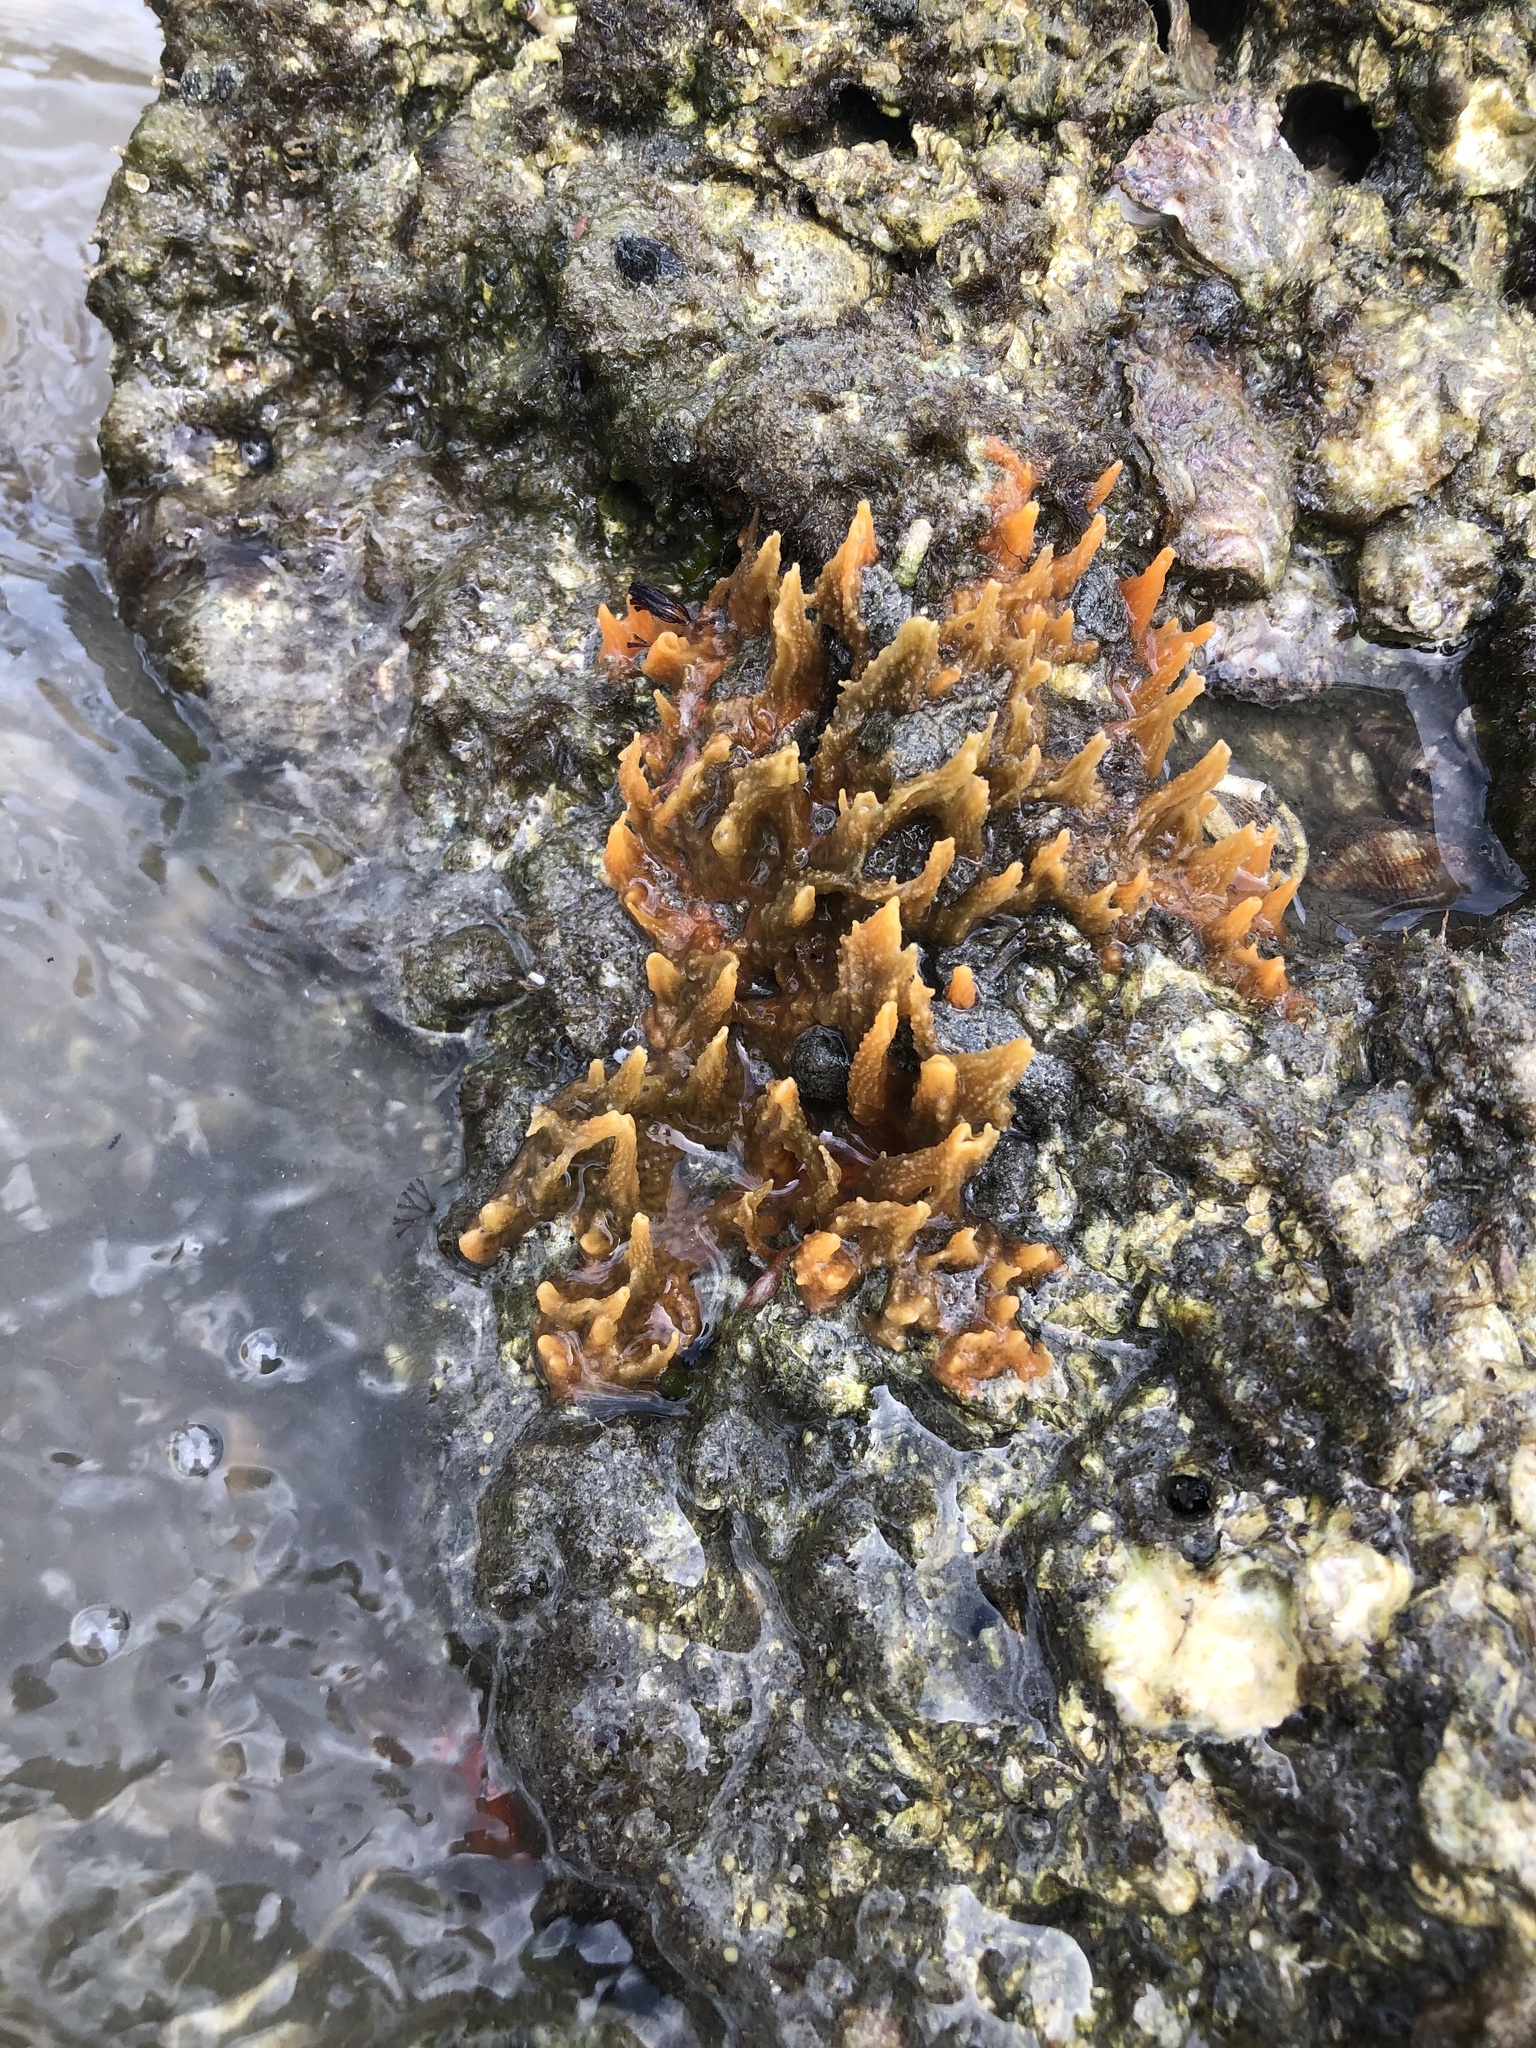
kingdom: Animalia
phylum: Porifera
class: Demospongiae
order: Suberitida
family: Halichondriidae
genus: Hymeniacidon
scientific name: Hymeniacidon heliophila
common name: Diurnal horny sponge
